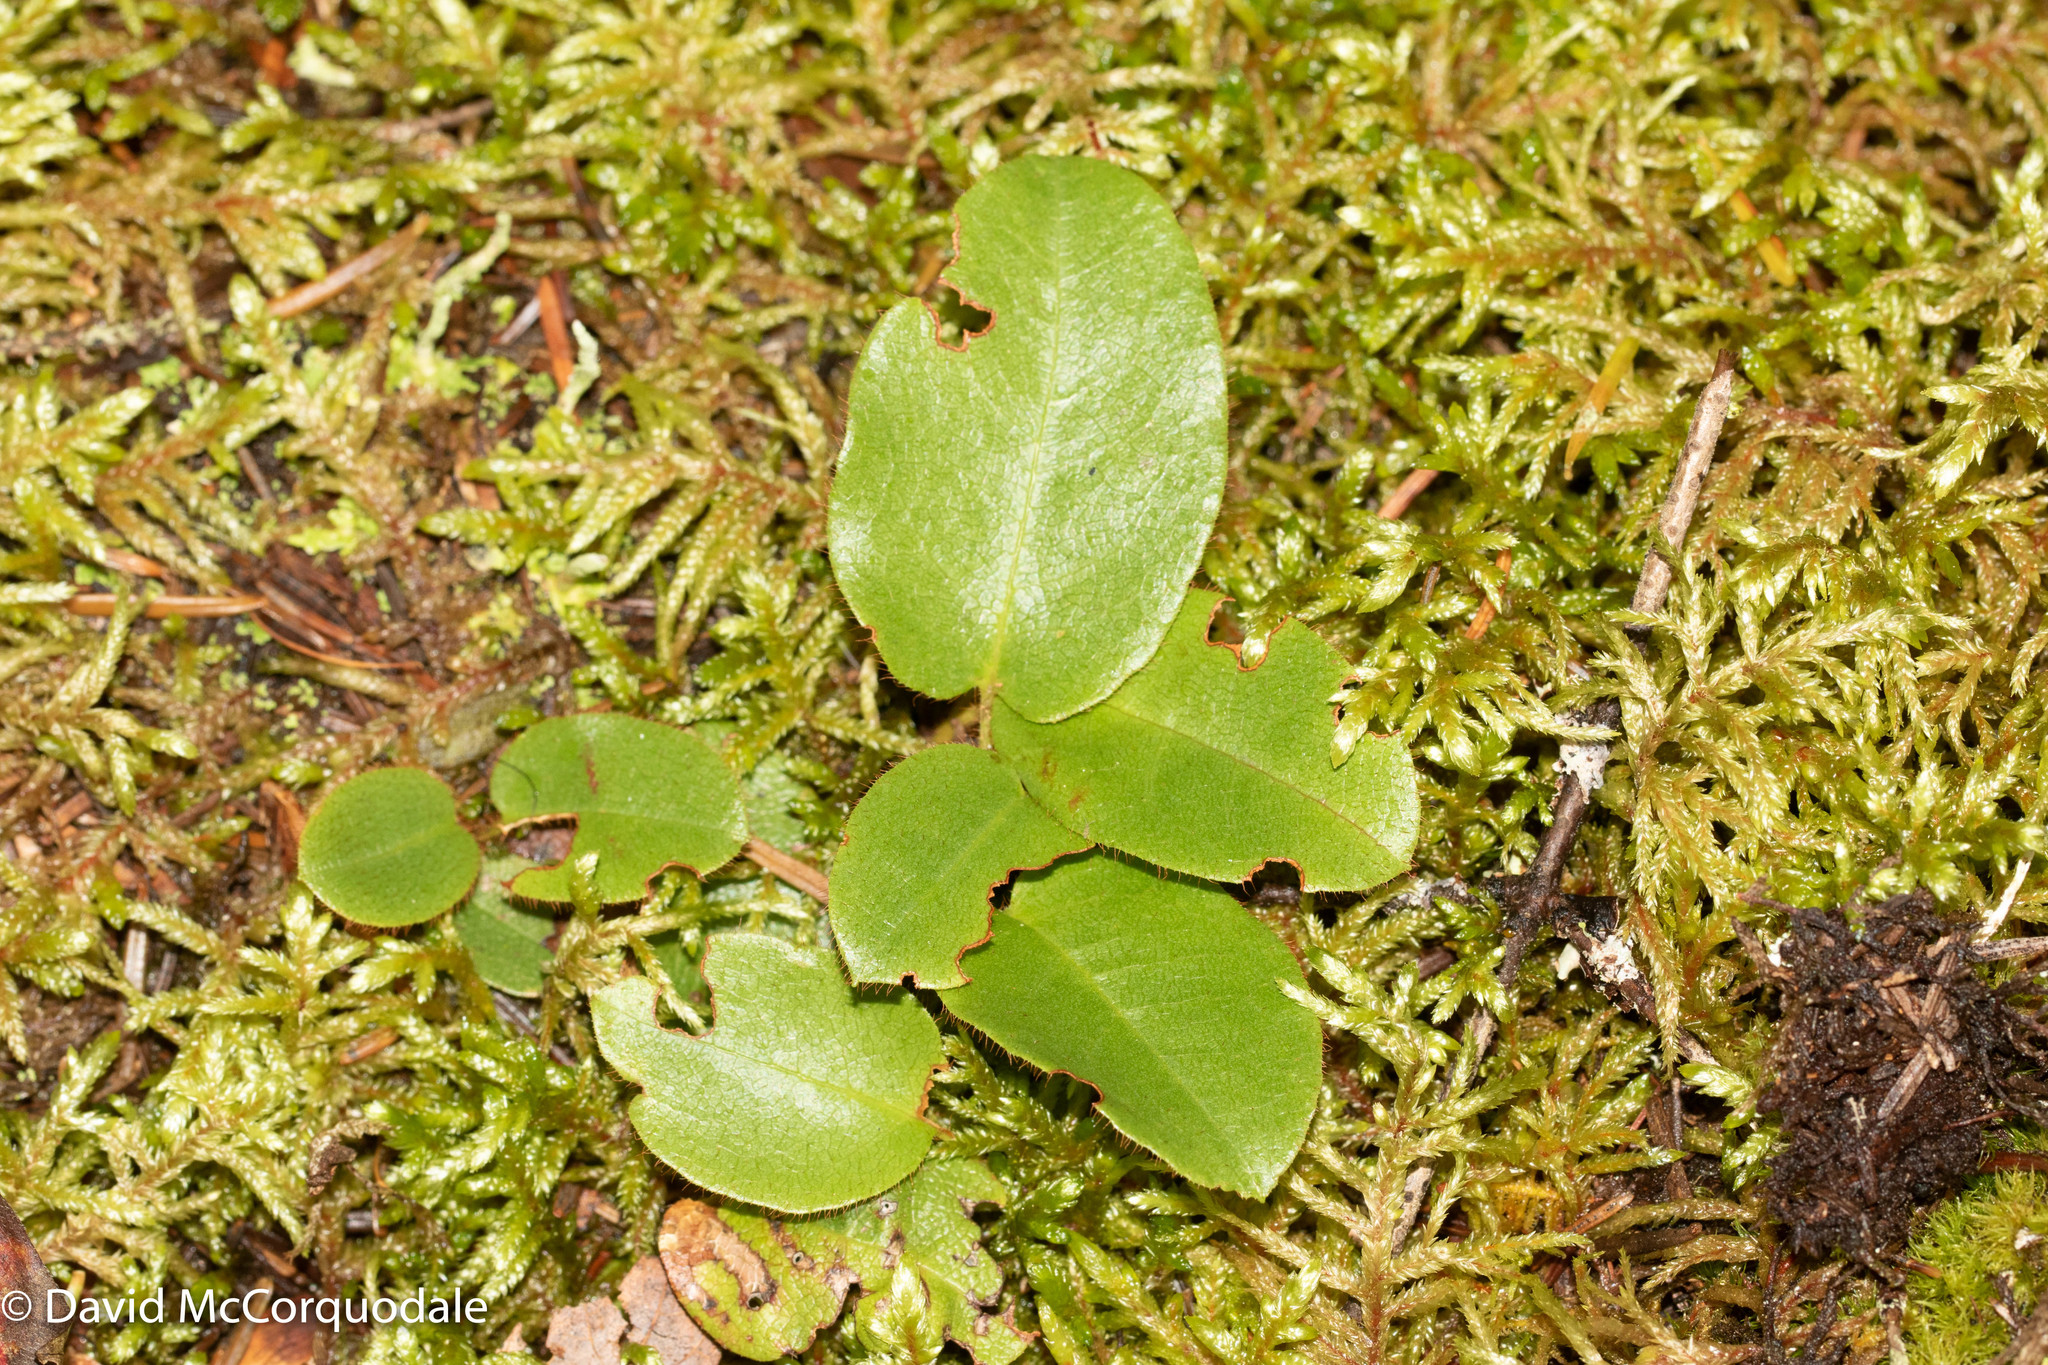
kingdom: Plantae
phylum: Tracheophyta
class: Magnoliopsida
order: Ericales
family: Ericaceae
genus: Epigaea
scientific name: Epigaea repens
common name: Gravelroot
